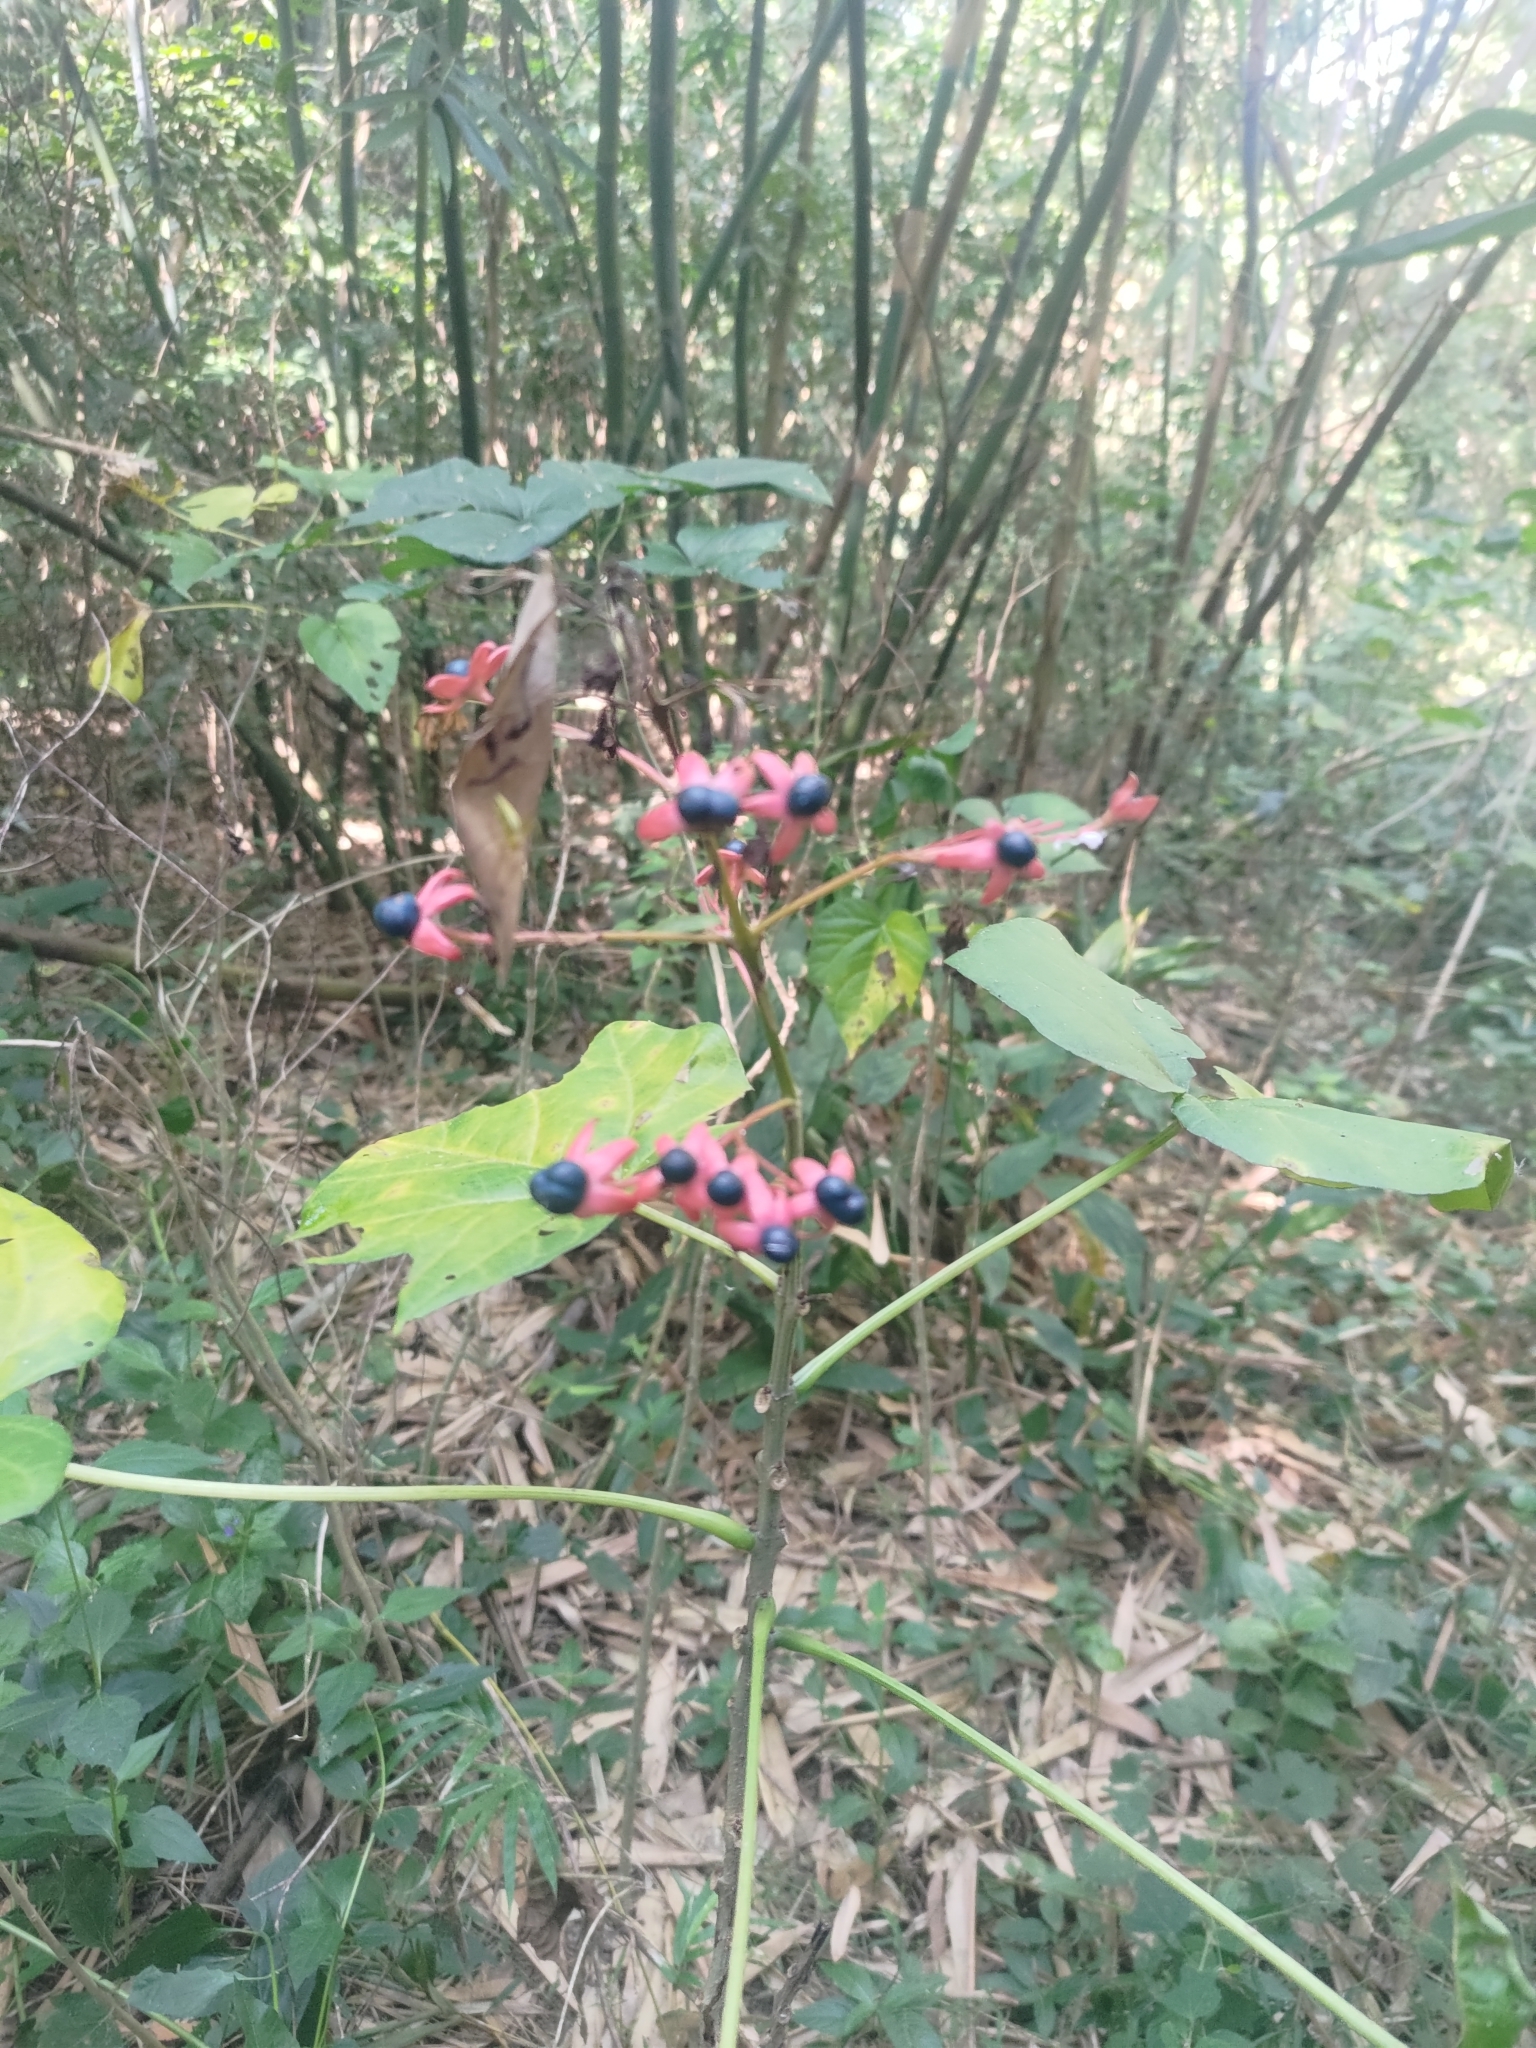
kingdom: Plantae
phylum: Tracheophyta
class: Magnoliopsida
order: Lamiales
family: Lamiaceae
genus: Clerodendrum
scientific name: Clerodendrum japonicum
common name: Japanese glorybower
